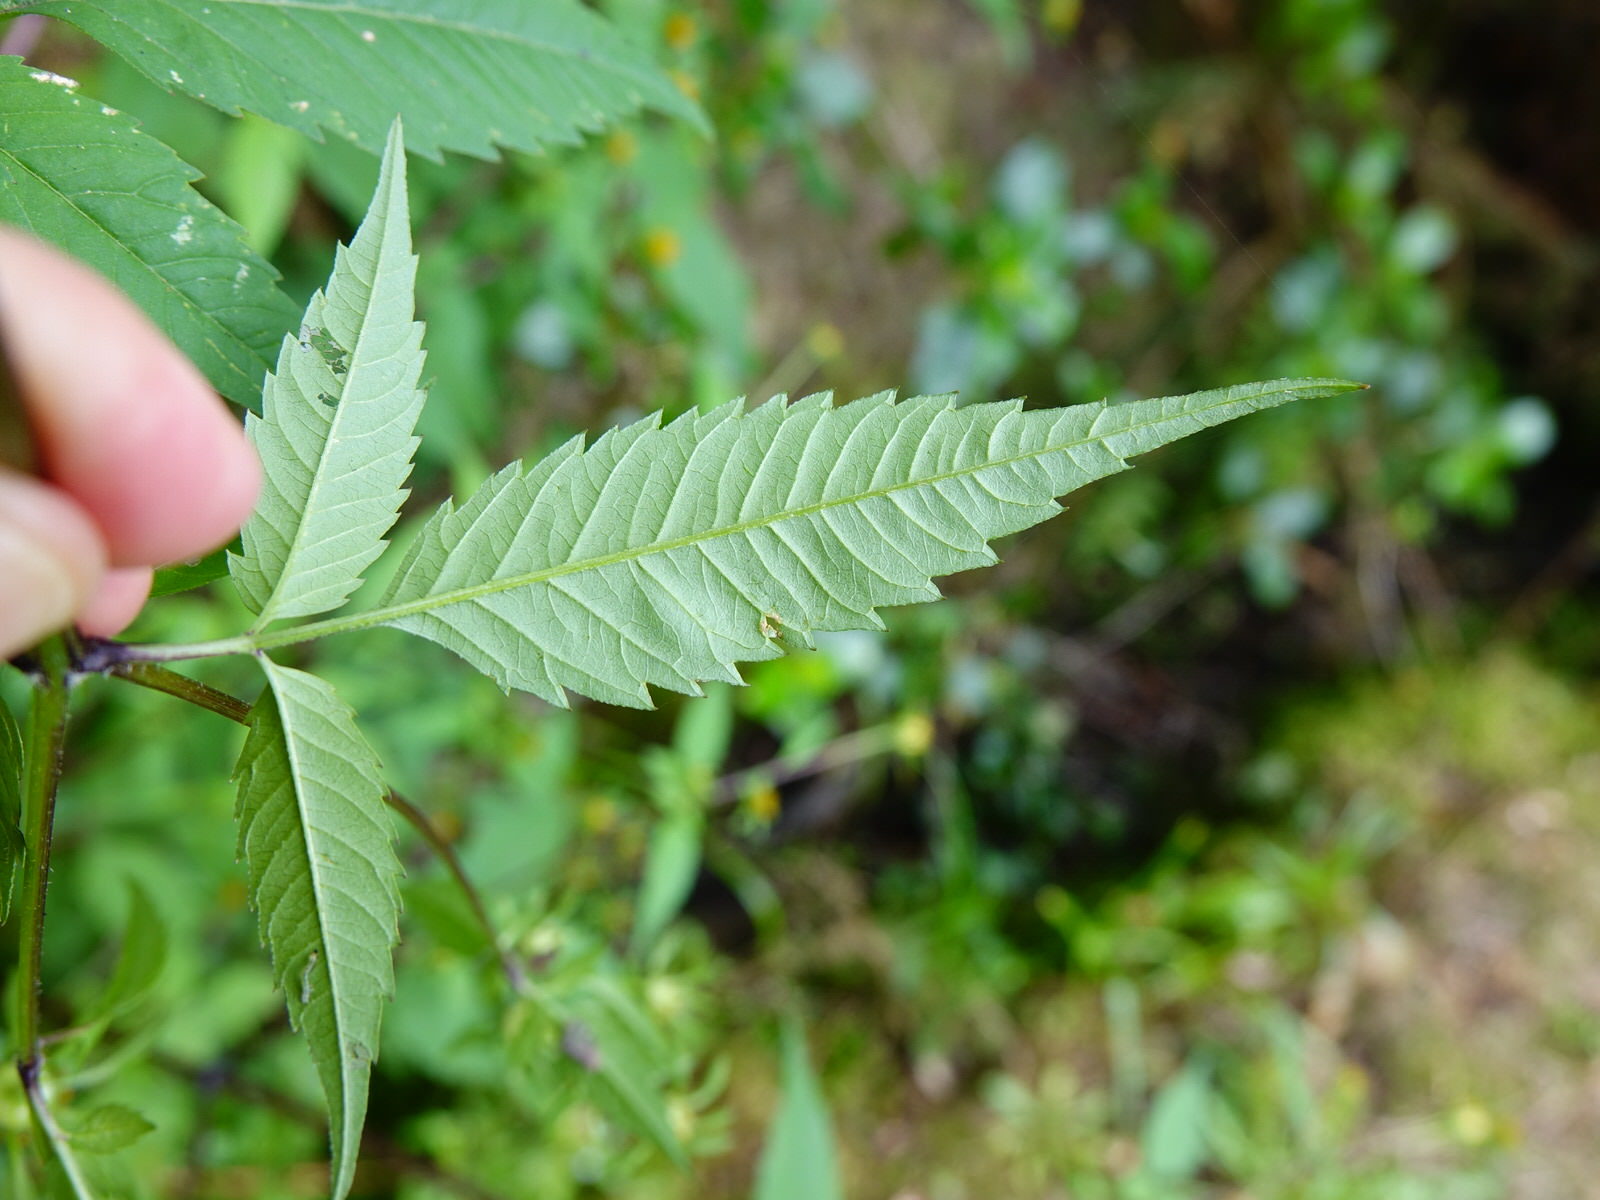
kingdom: Plantae
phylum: Tracheophyta
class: Magnoliopsida
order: Asterales
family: Asteraceae
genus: Bidens
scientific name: Bidens frondosa
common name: Beggarticks
